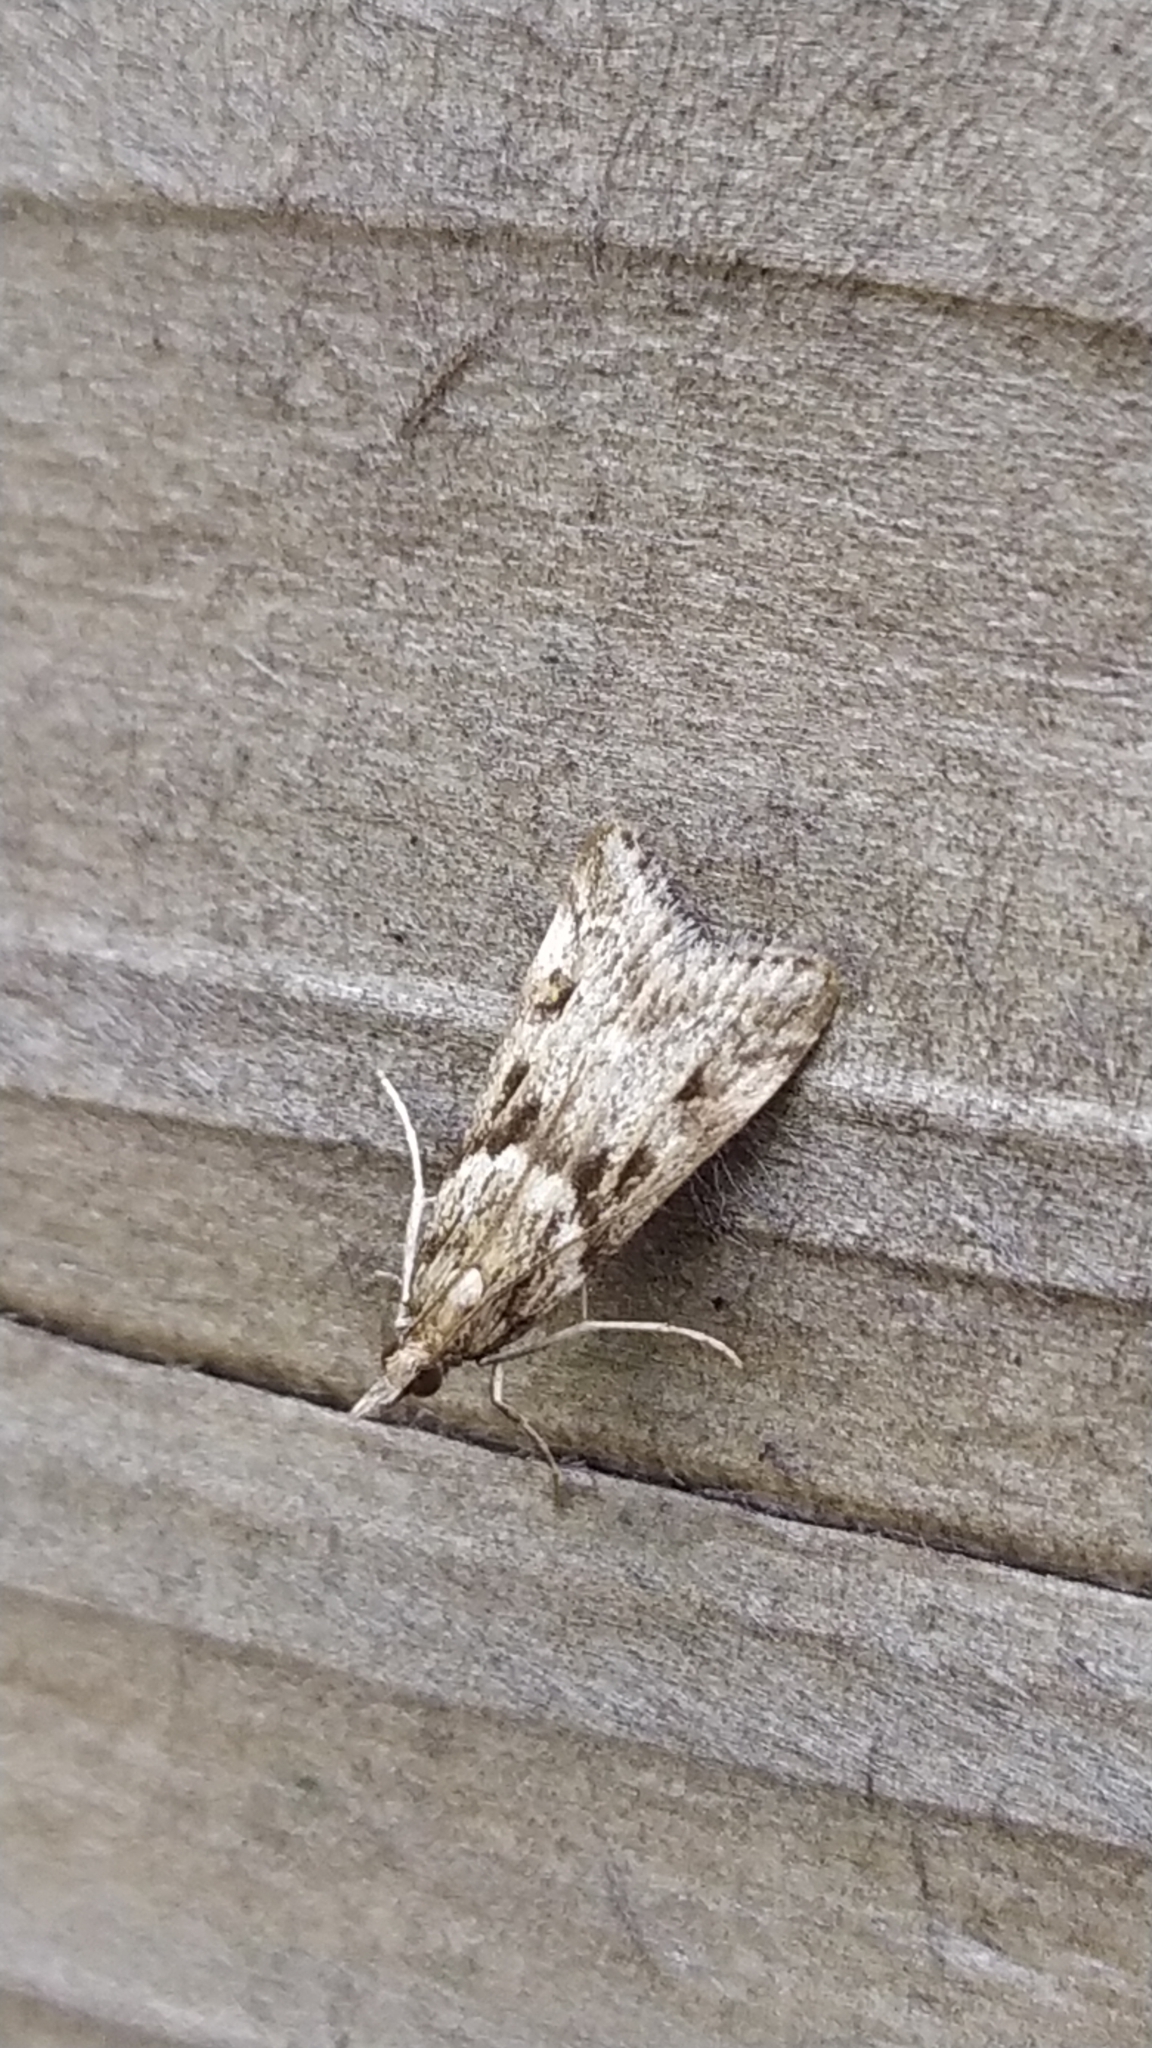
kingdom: Animalia
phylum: Arthropoda
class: Insecta
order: Lepidoptera
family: Crambidae
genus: Eudonia
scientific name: Eudonia angustea
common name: Narrow-winged grey
